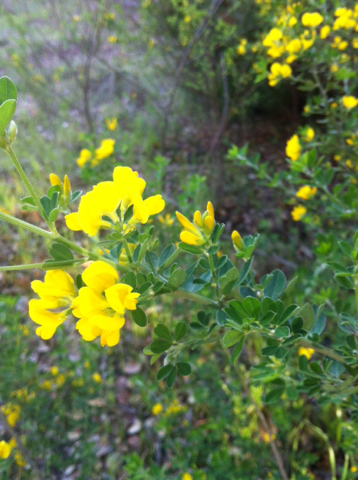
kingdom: Plantae
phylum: Tracheophyta
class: Magnoliopsida
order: Fabales
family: Fabaceae
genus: Genista
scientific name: Genista monspessulana
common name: Montpellier broom
